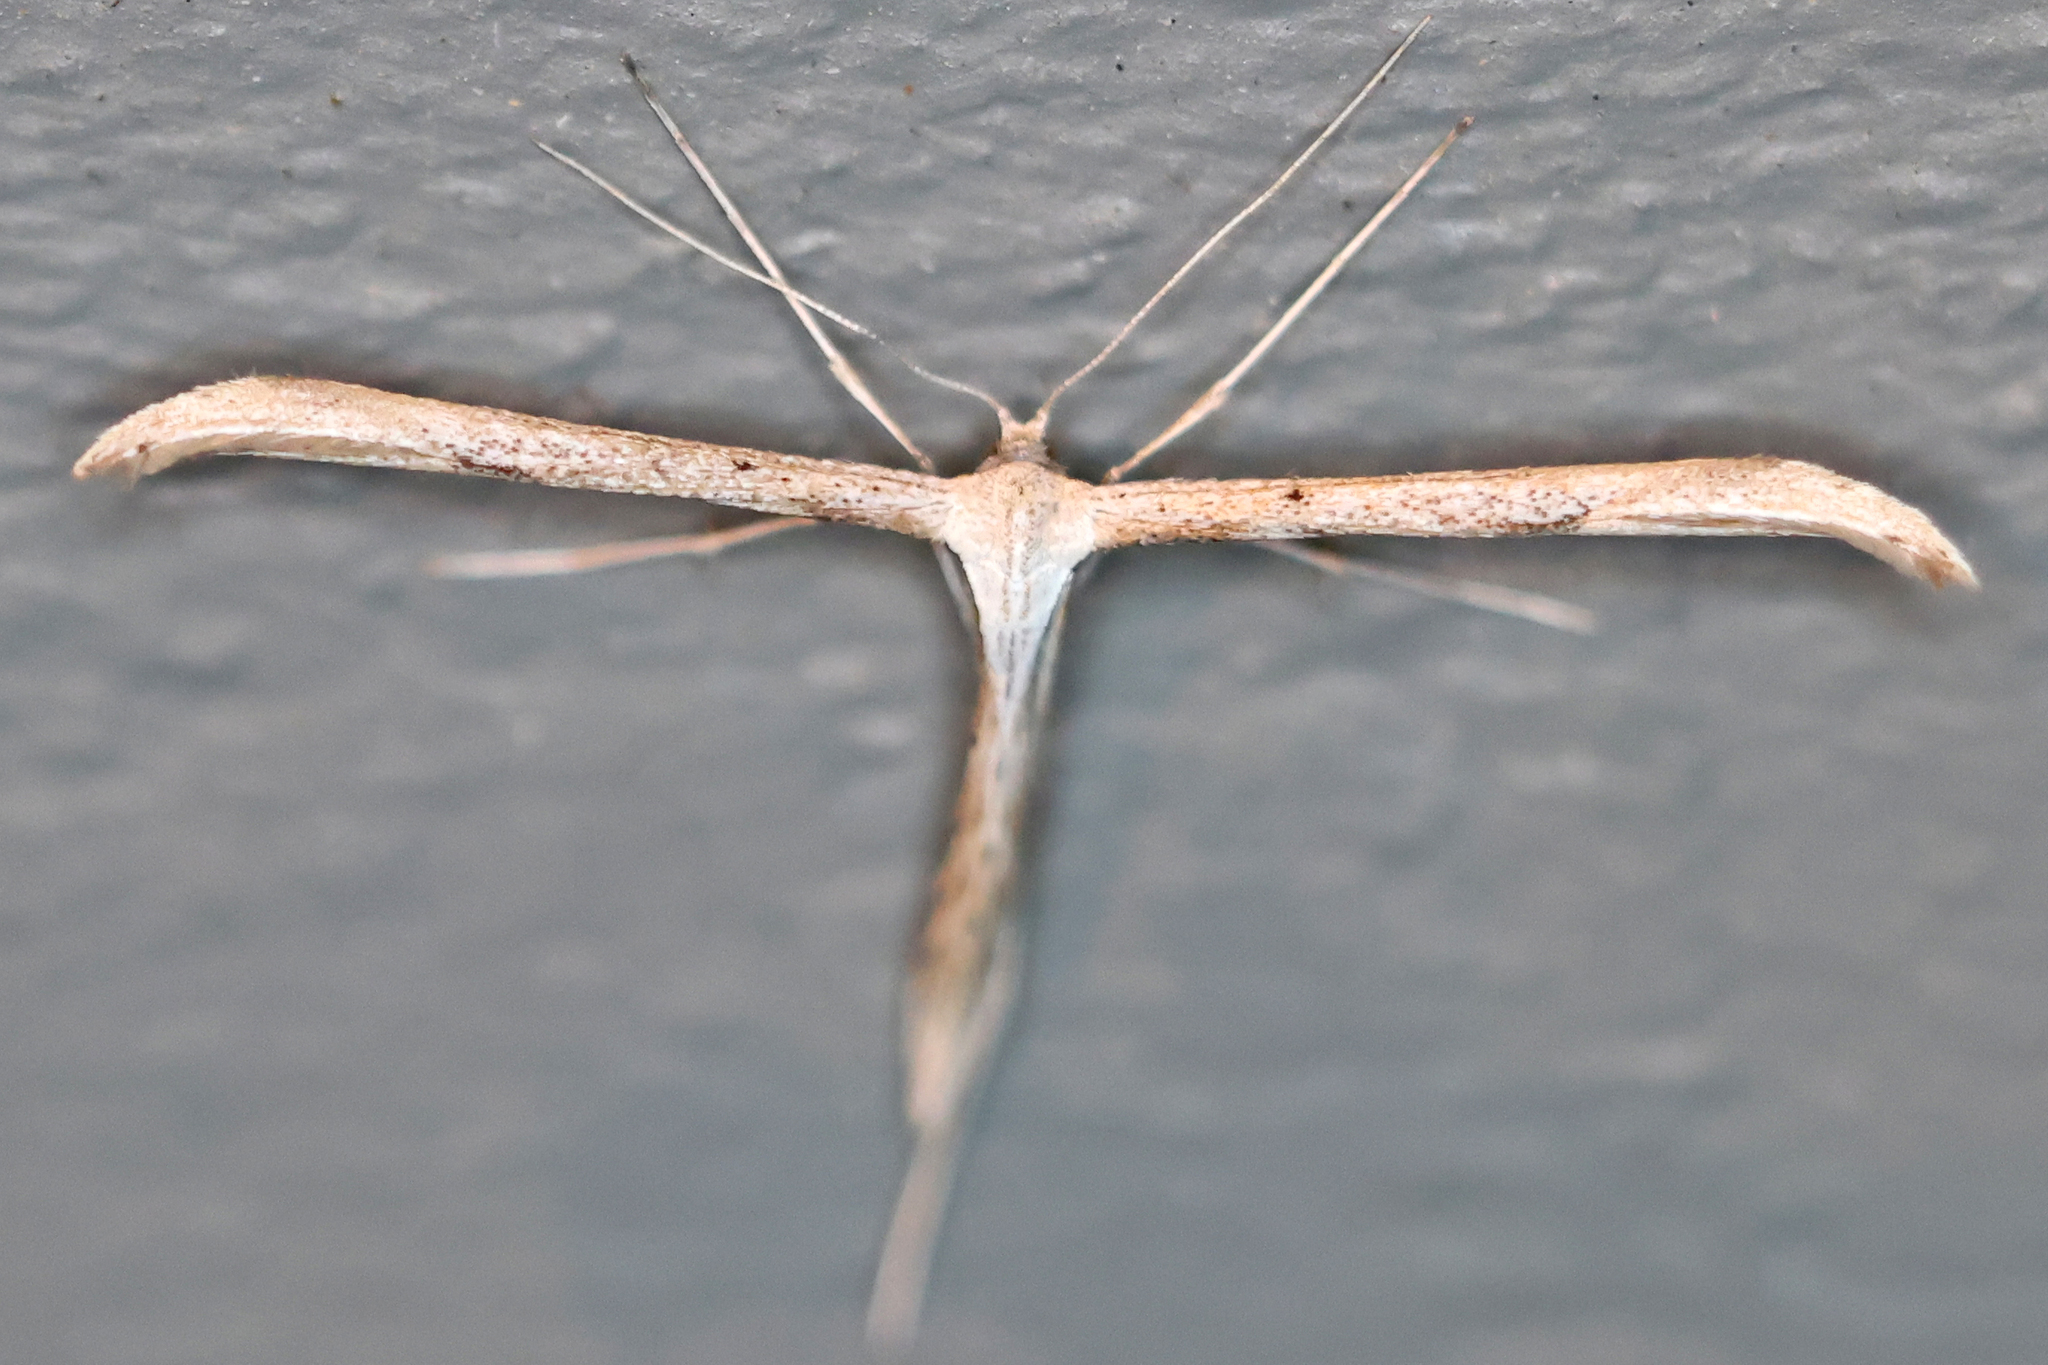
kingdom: Animalia
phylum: Arthropoda
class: Insecta
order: Lepidoptera
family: Pterophoridae
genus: Emmelina
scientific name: Emmelina monodactyla
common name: Common plume
